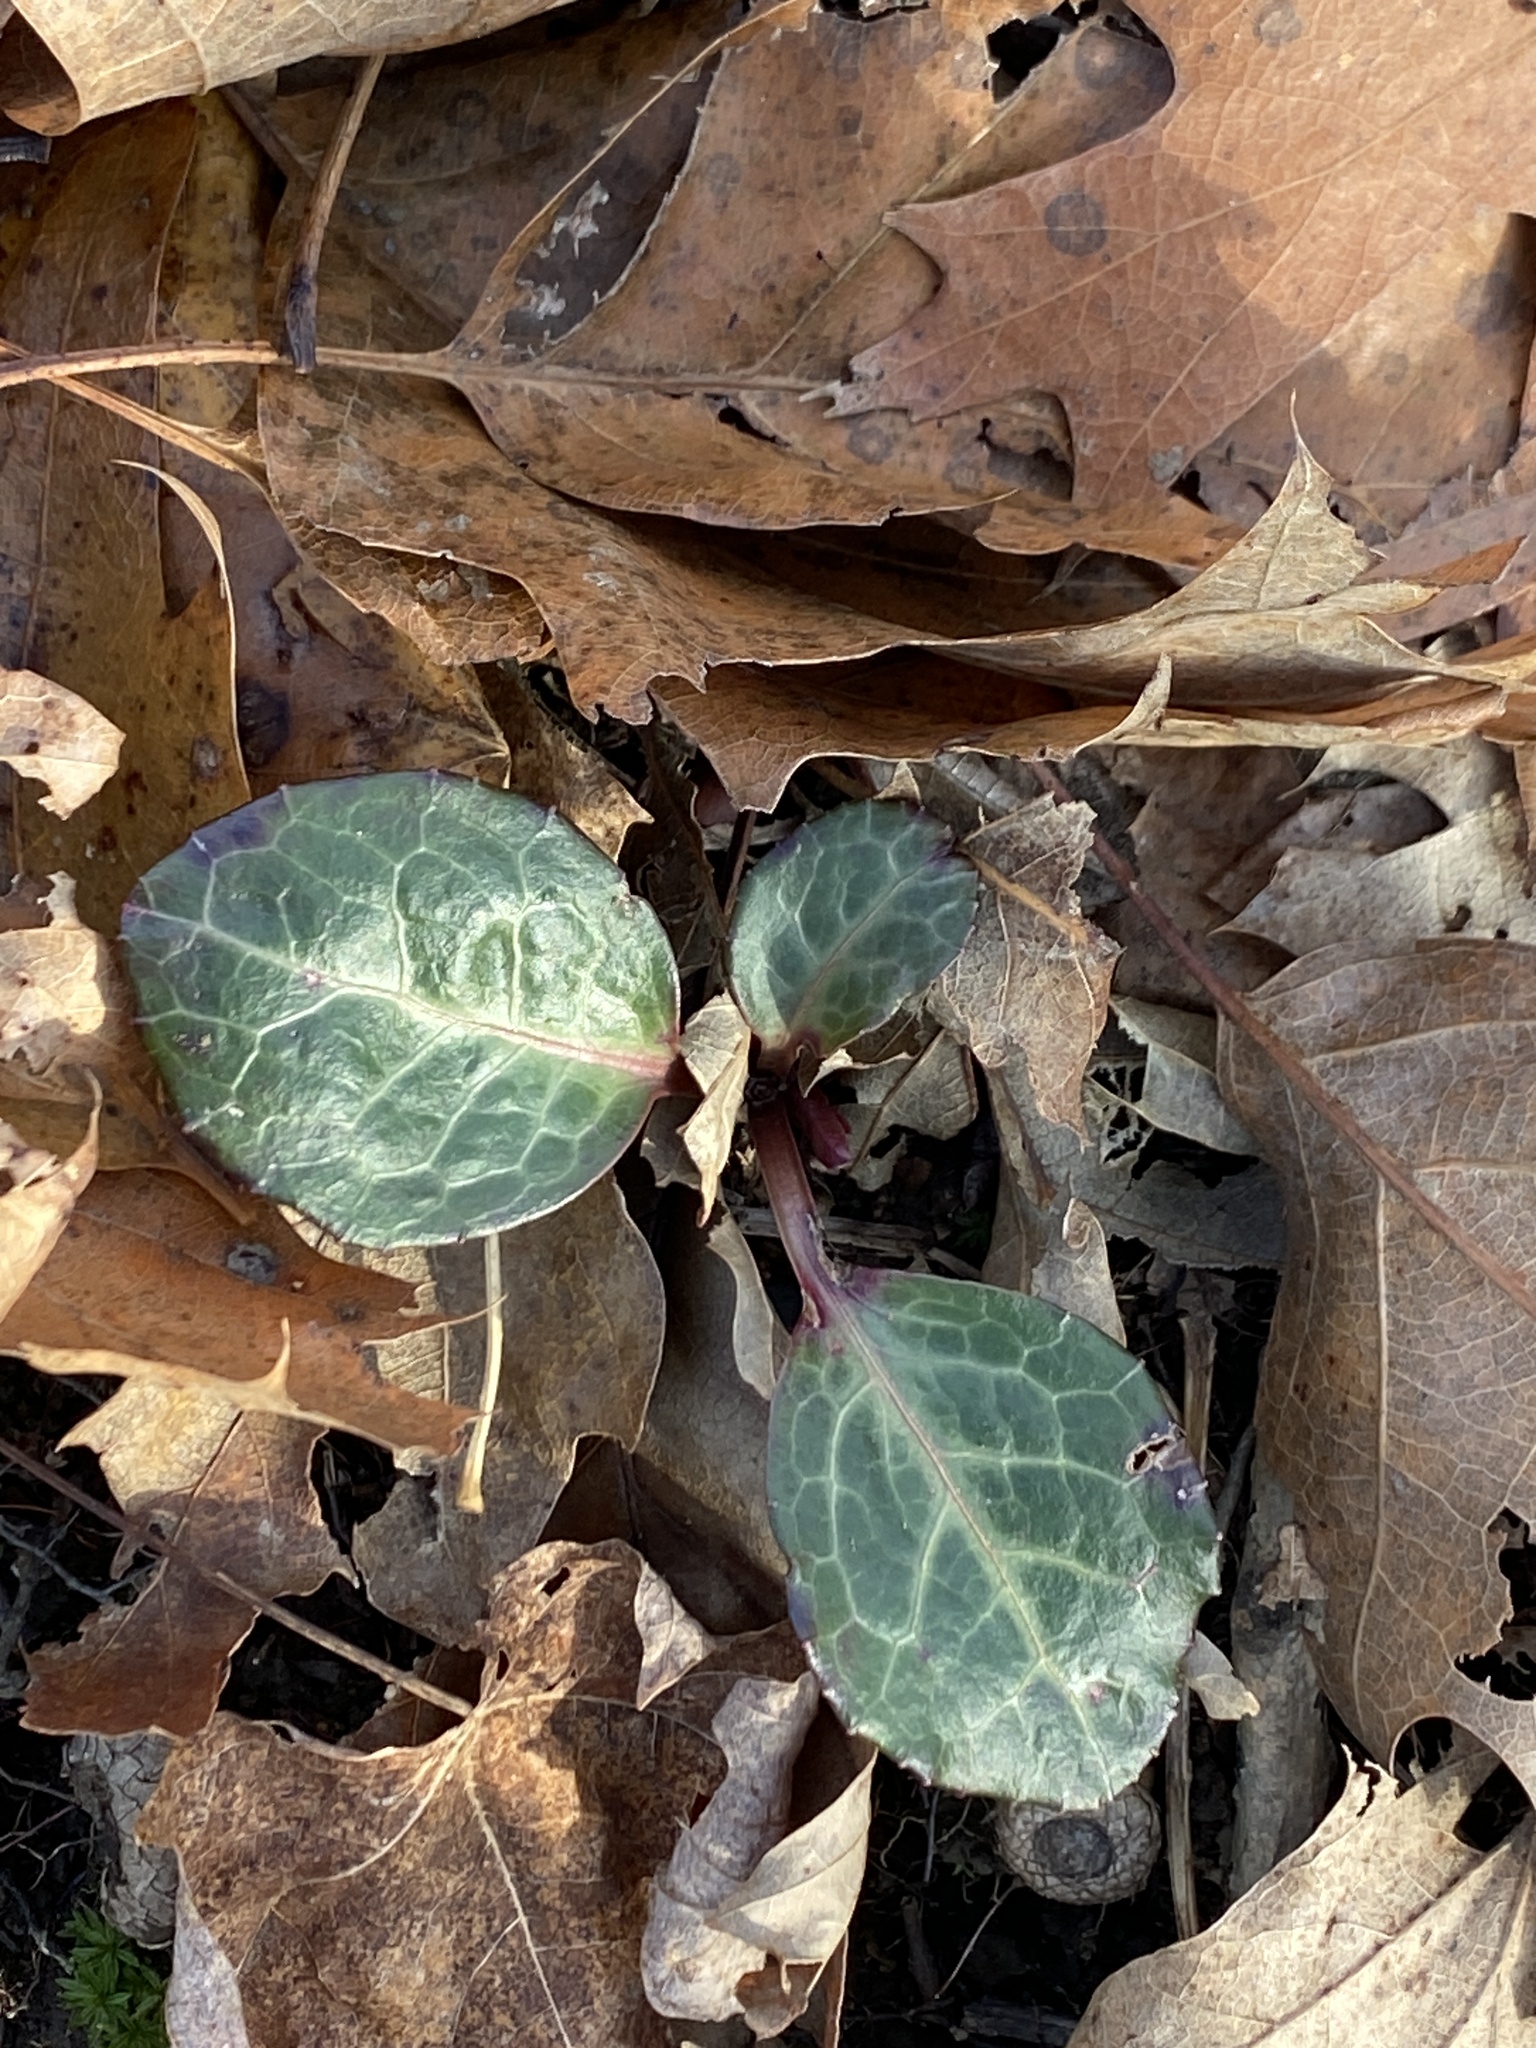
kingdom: Plantae
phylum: Tracheophyta
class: Magnoliopsida
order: Ericales
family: Ericaceae
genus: Pyrola
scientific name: Pyrola americana
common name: American wintergreen
